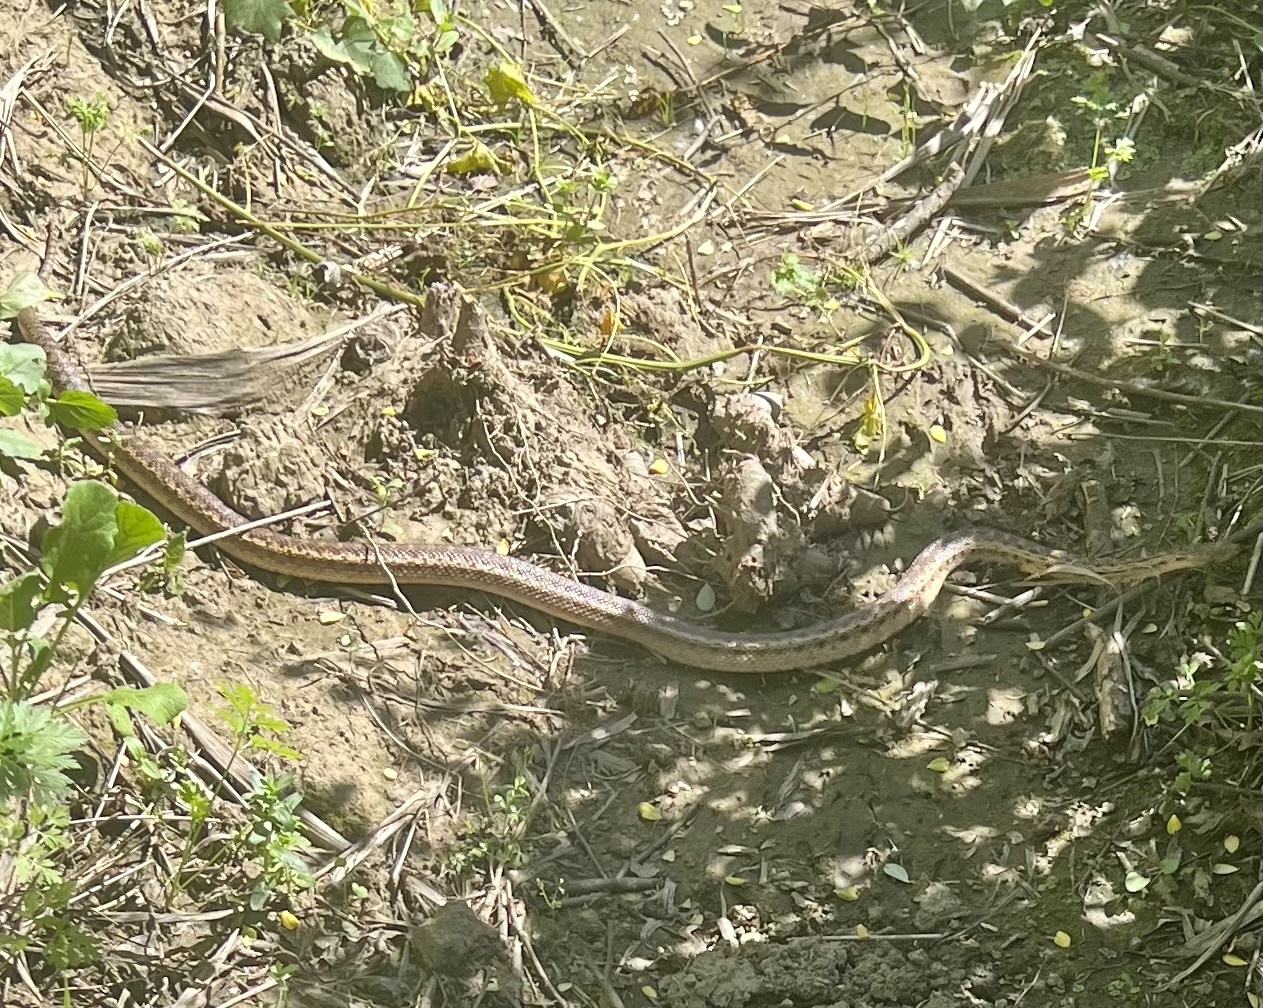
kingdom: Animalia
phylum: Chordata
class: Squamata
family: Colubridae
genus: Pituophis
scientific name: Pituophis catenifer
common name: Gopher snake
